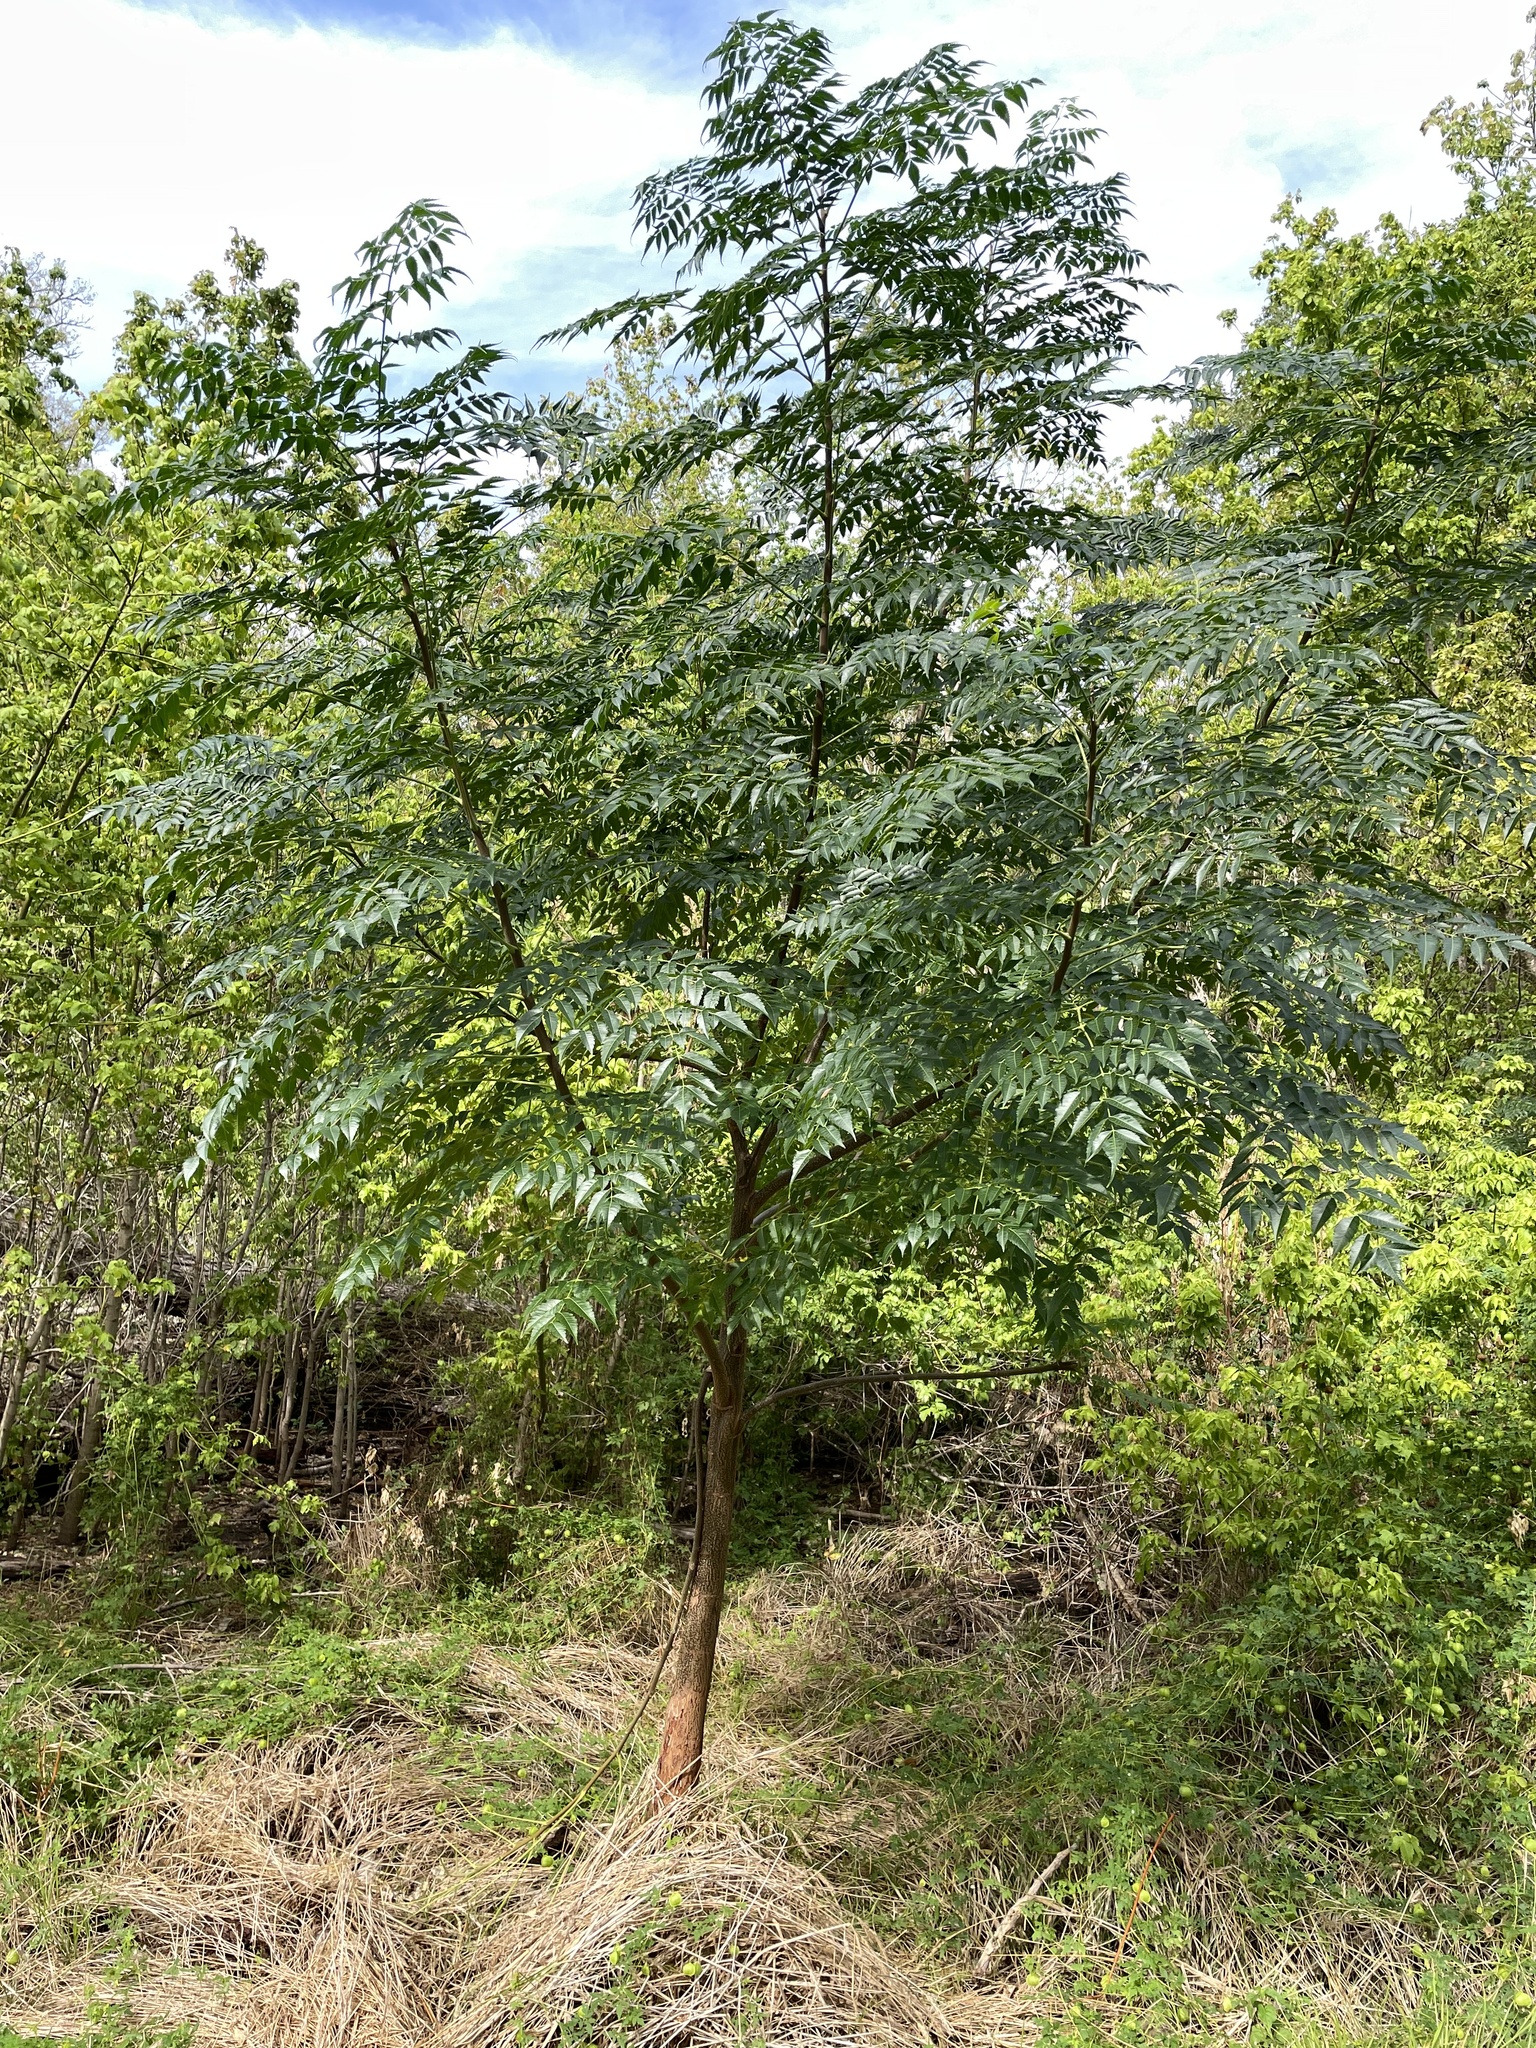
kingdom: Plantae
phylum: Tracheophyta
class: Magnoliopsida
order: Sapindales
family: Meliaceae
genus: Melia
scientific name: Melia azedarach
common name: Chinaberrytree
